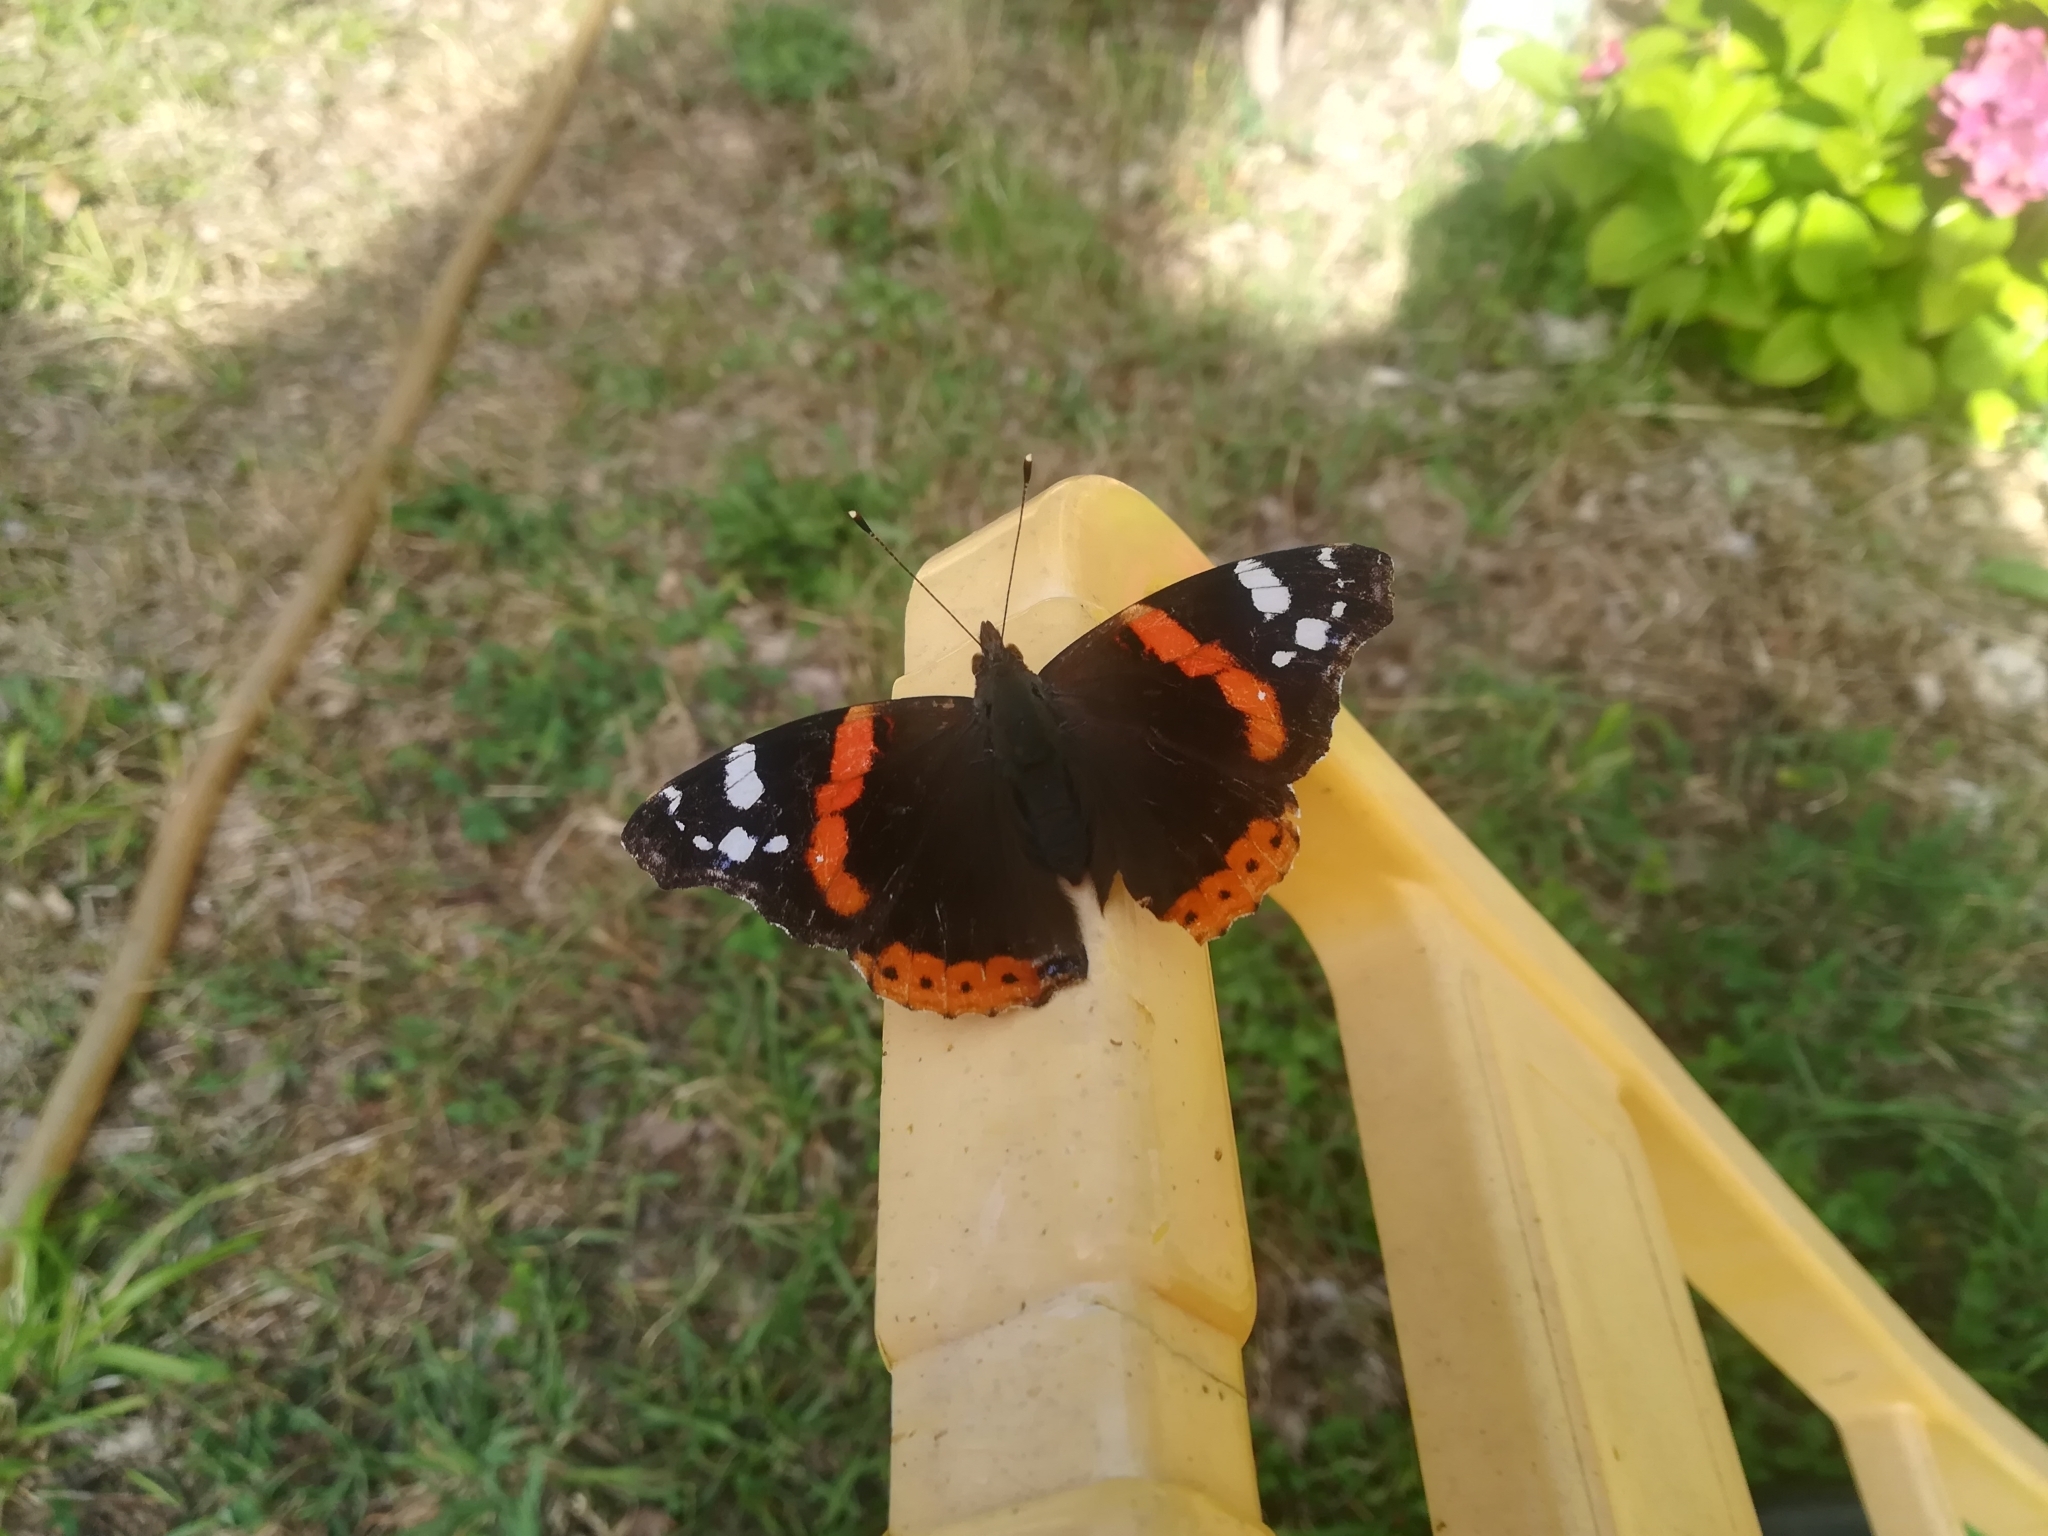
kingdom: Animalia
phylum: Arthropoda
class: Insecta
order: Lepidoptera
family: Nymphalidae
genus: Vanessa
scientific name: Vanessa atalanta
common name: Red admiral
